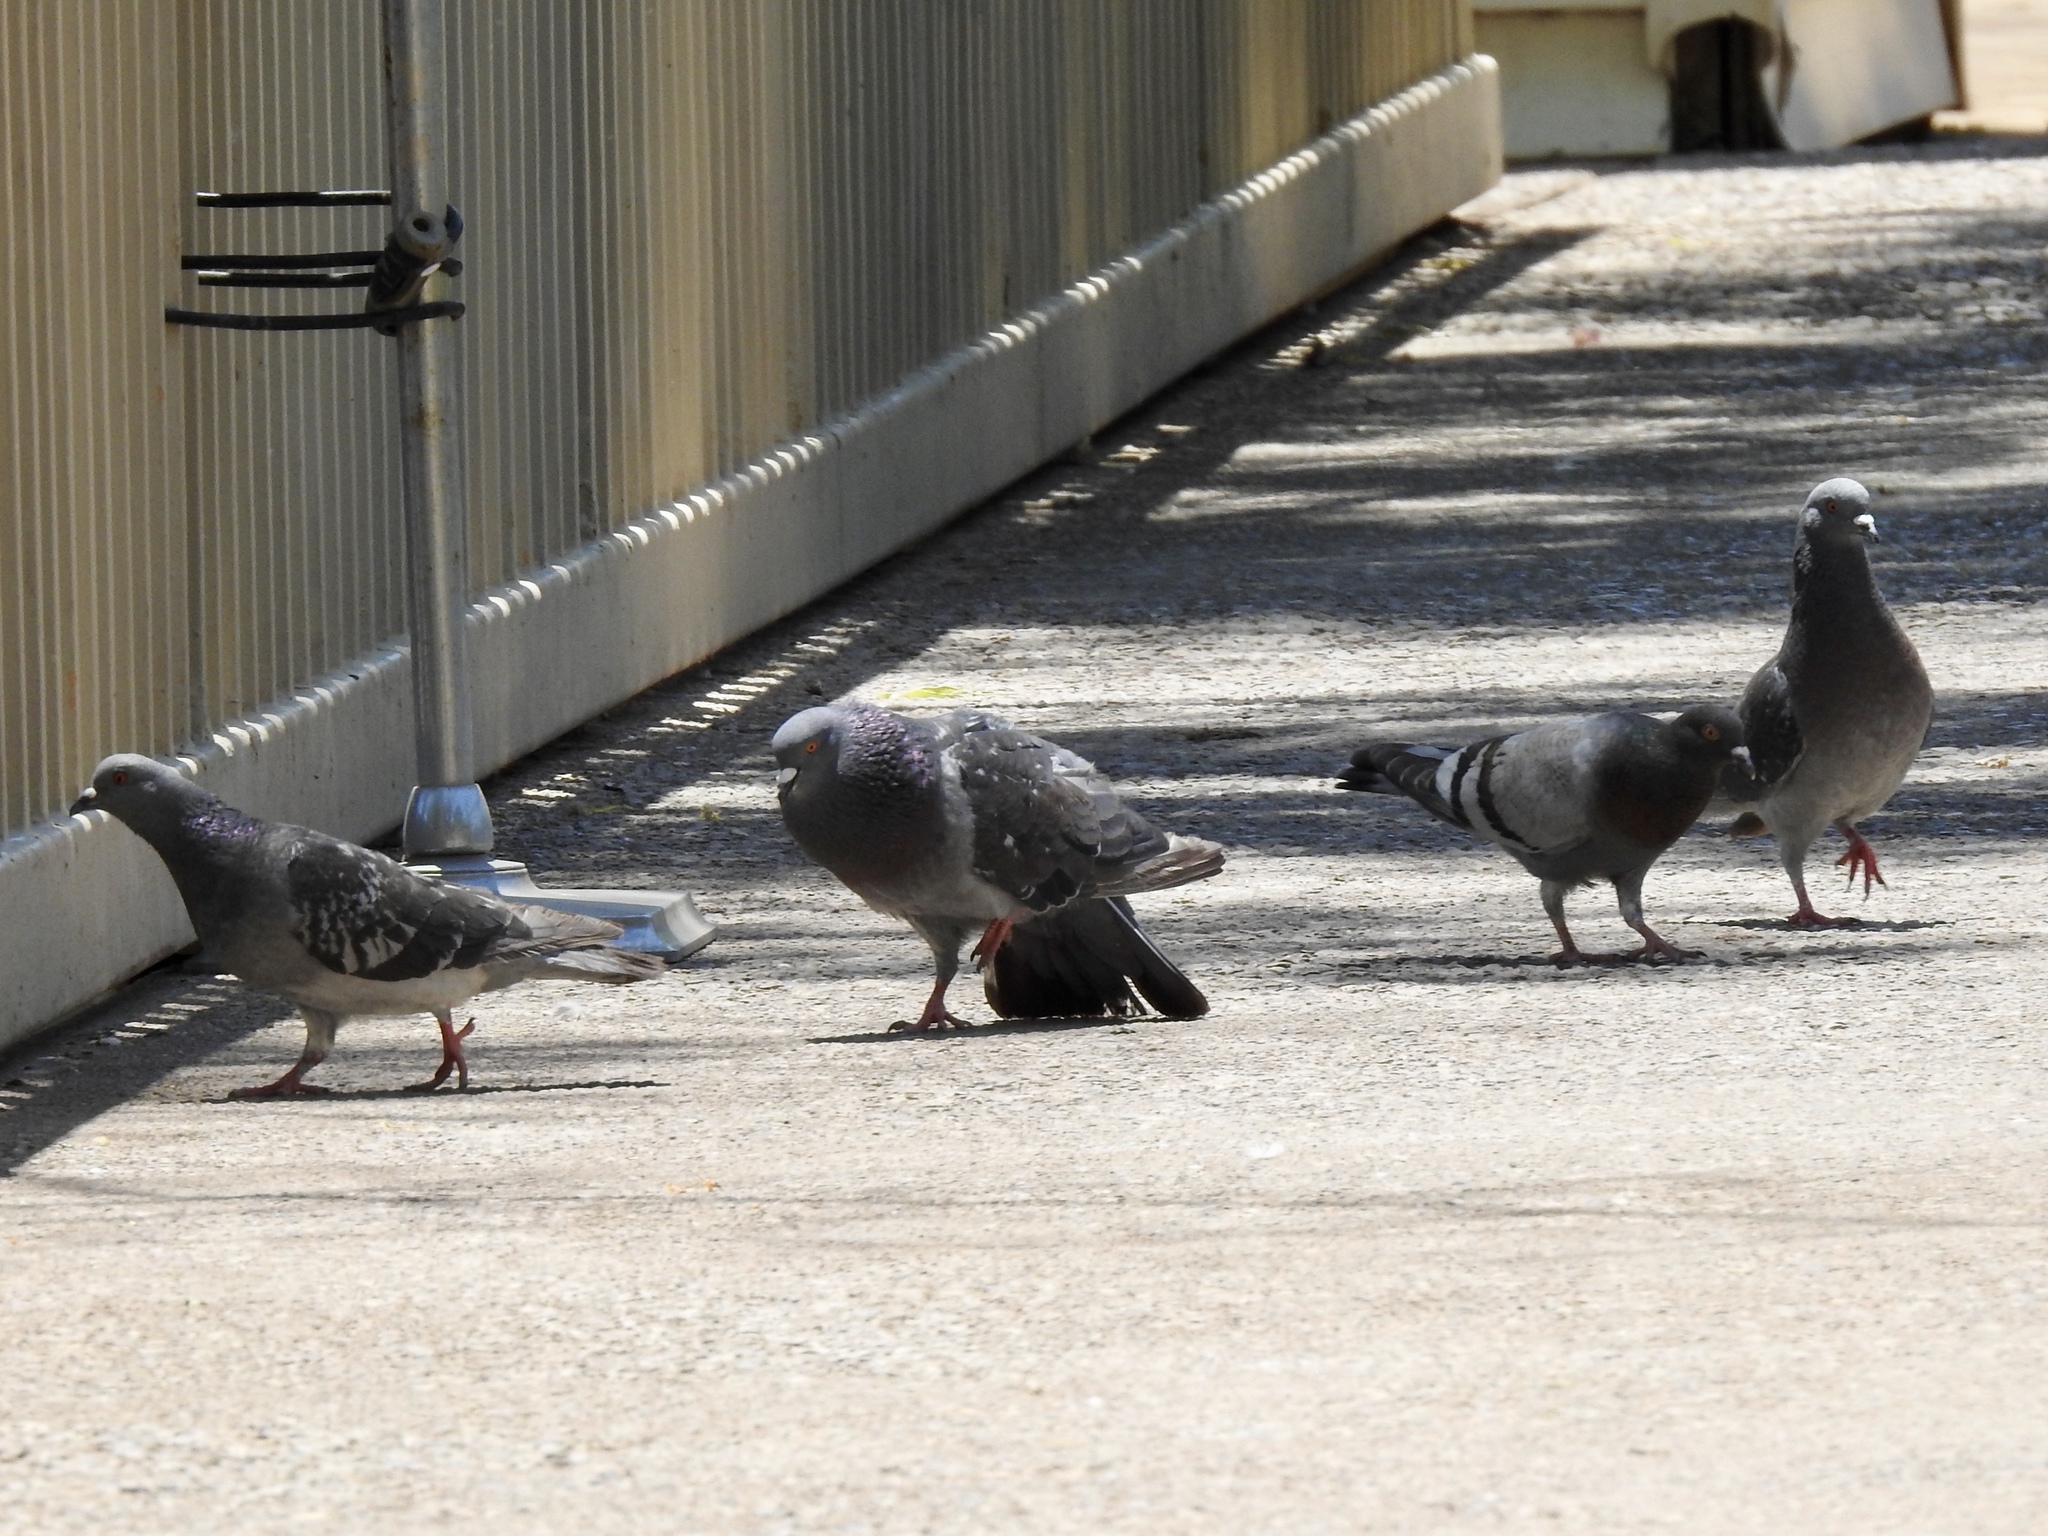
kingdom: Animalia
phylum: Chordata
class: Aves
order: Columbiformes
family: Columbidae
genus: Columba
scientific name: Columba livia
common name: Rock pigeon
